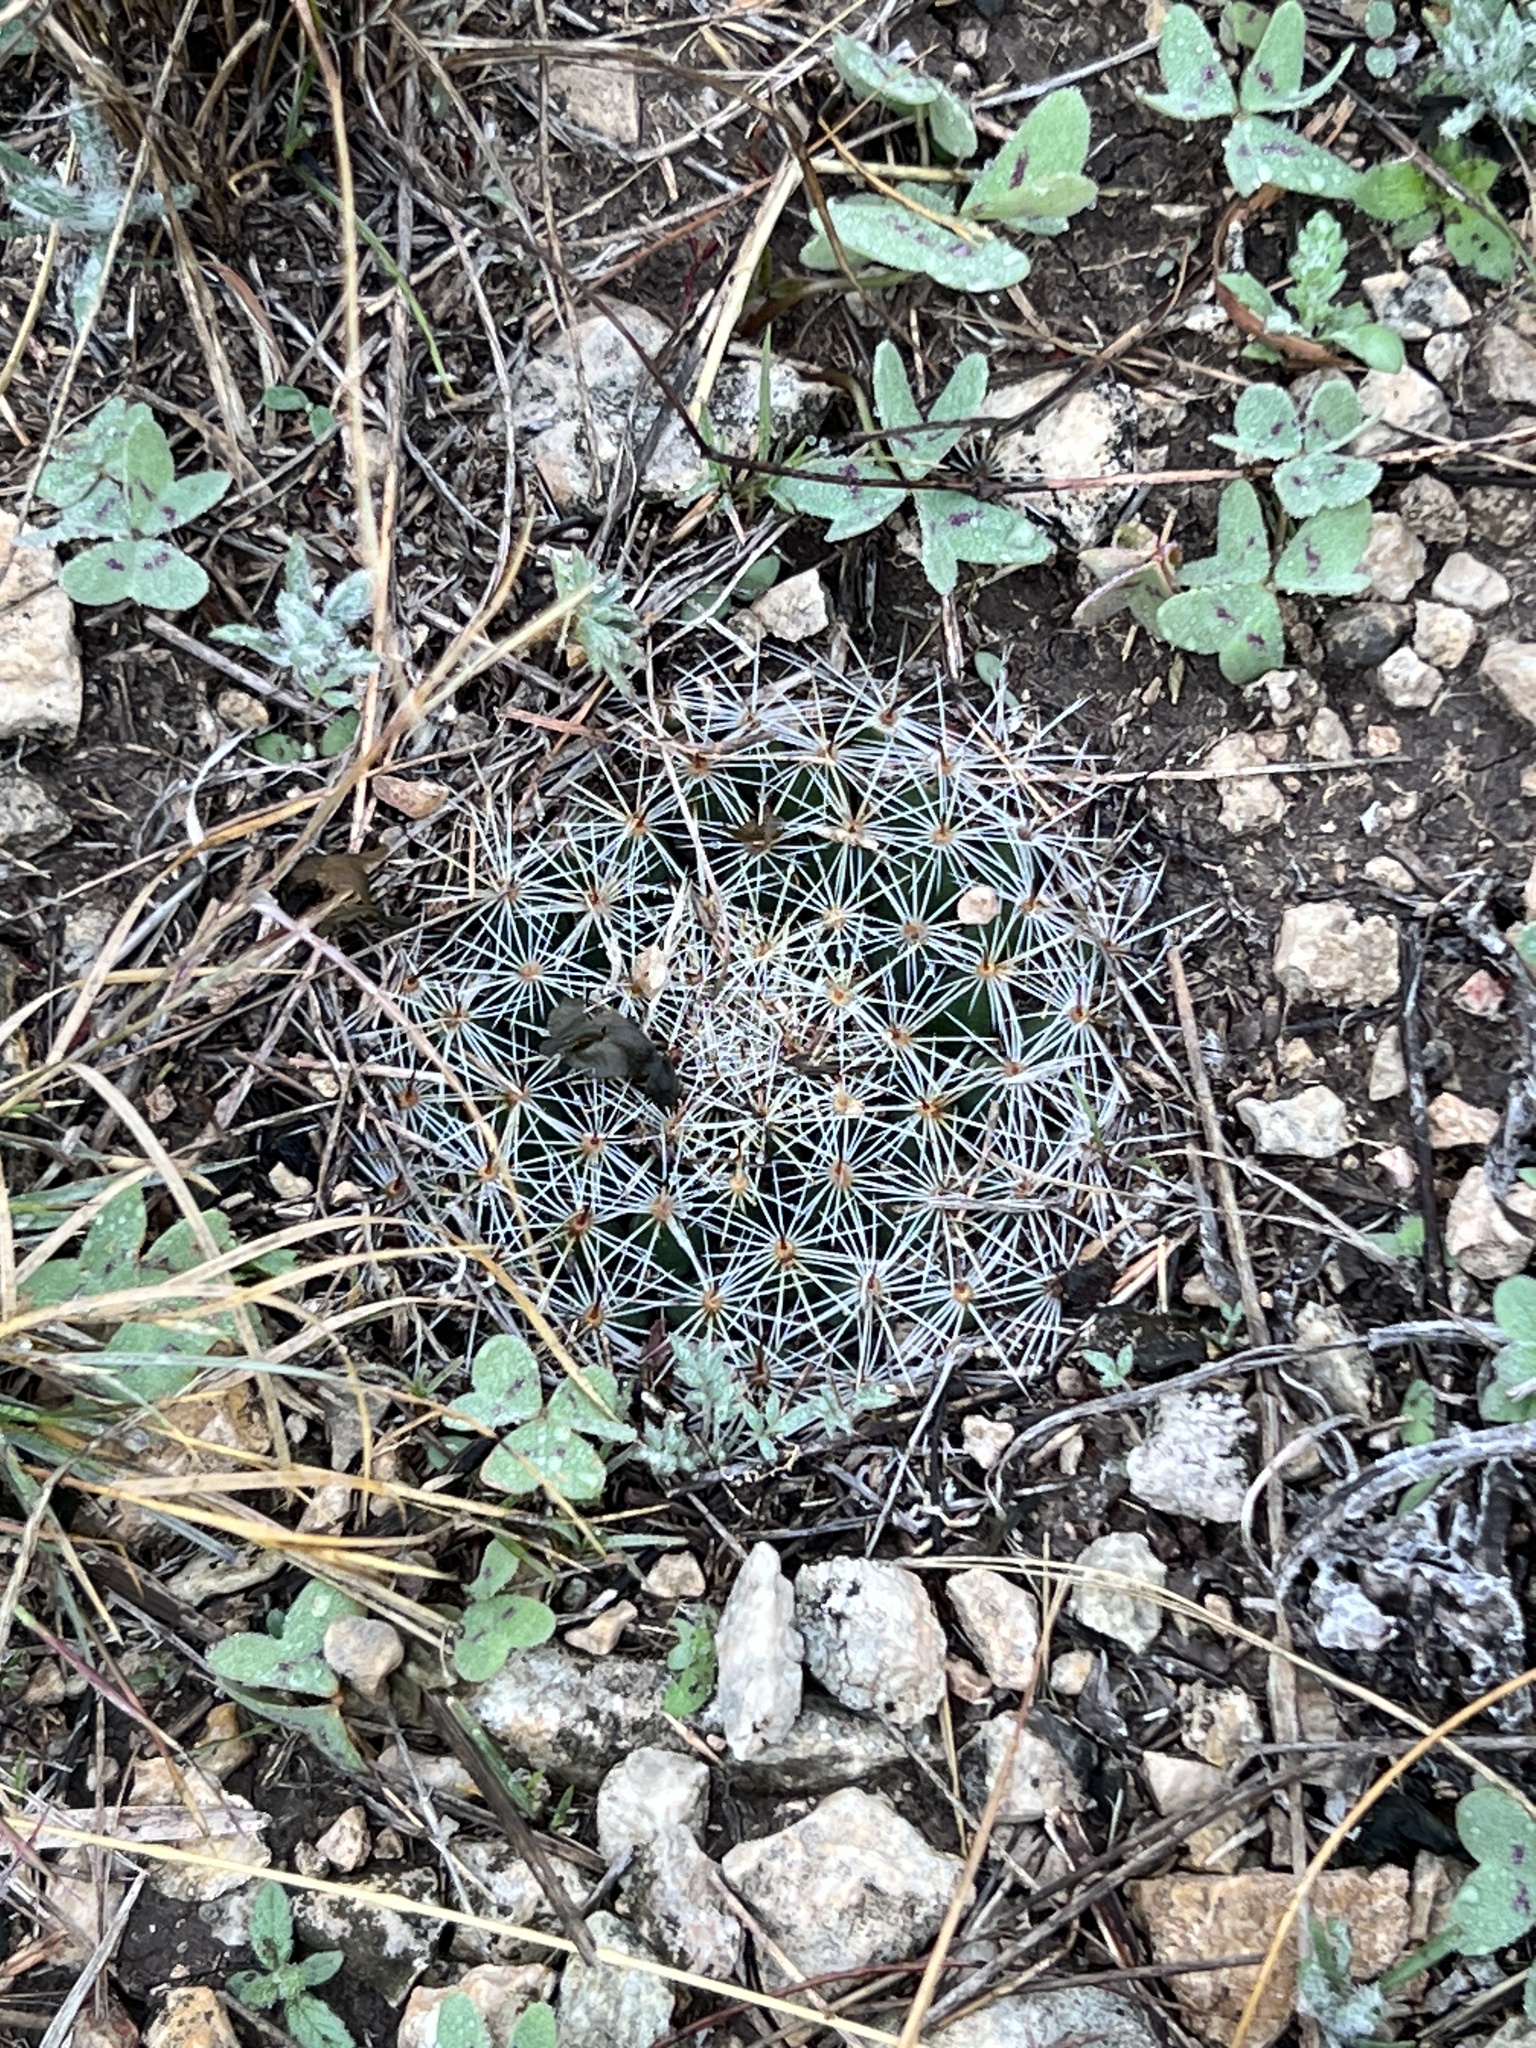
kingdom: Plantae
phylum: Tracheophyta
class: Magnoliopsida
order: Caryophyllales
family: Cactaceae
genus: Mammillaria
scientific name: Mammillaria heyderi
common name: Little nipple cactus
